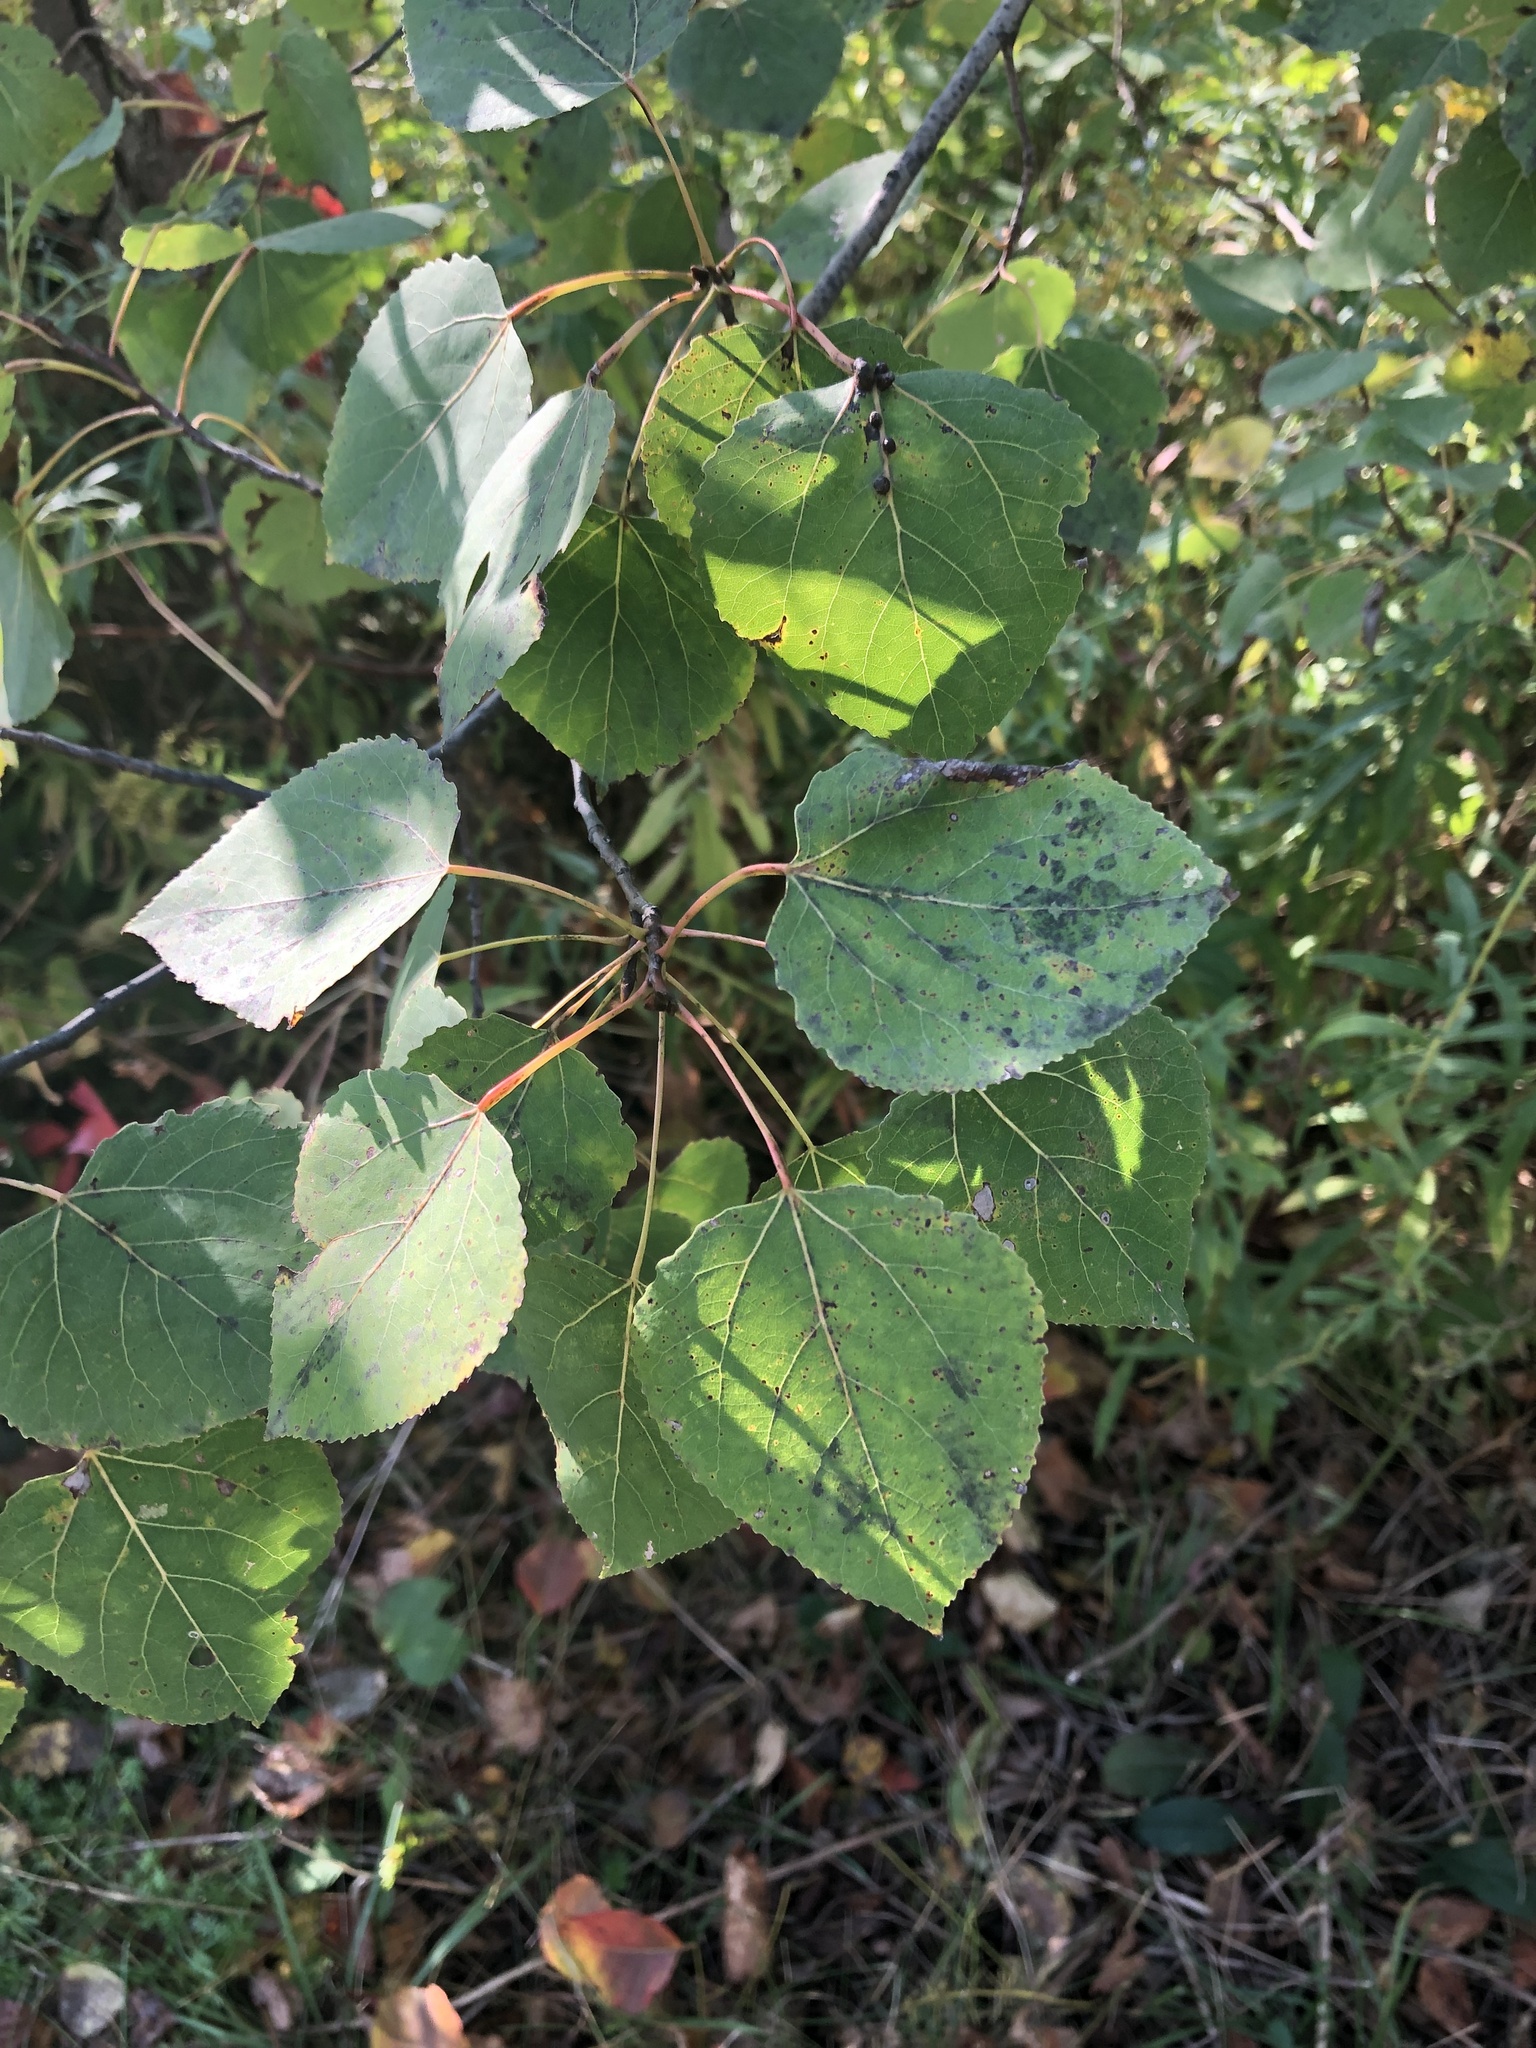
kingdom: Plantae
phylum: Tracheophyta
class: Magnoliopsida
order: Malpighiales
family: Salicaceae
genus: Populus
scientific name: Populus tremuloides
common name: Quaking aspen
